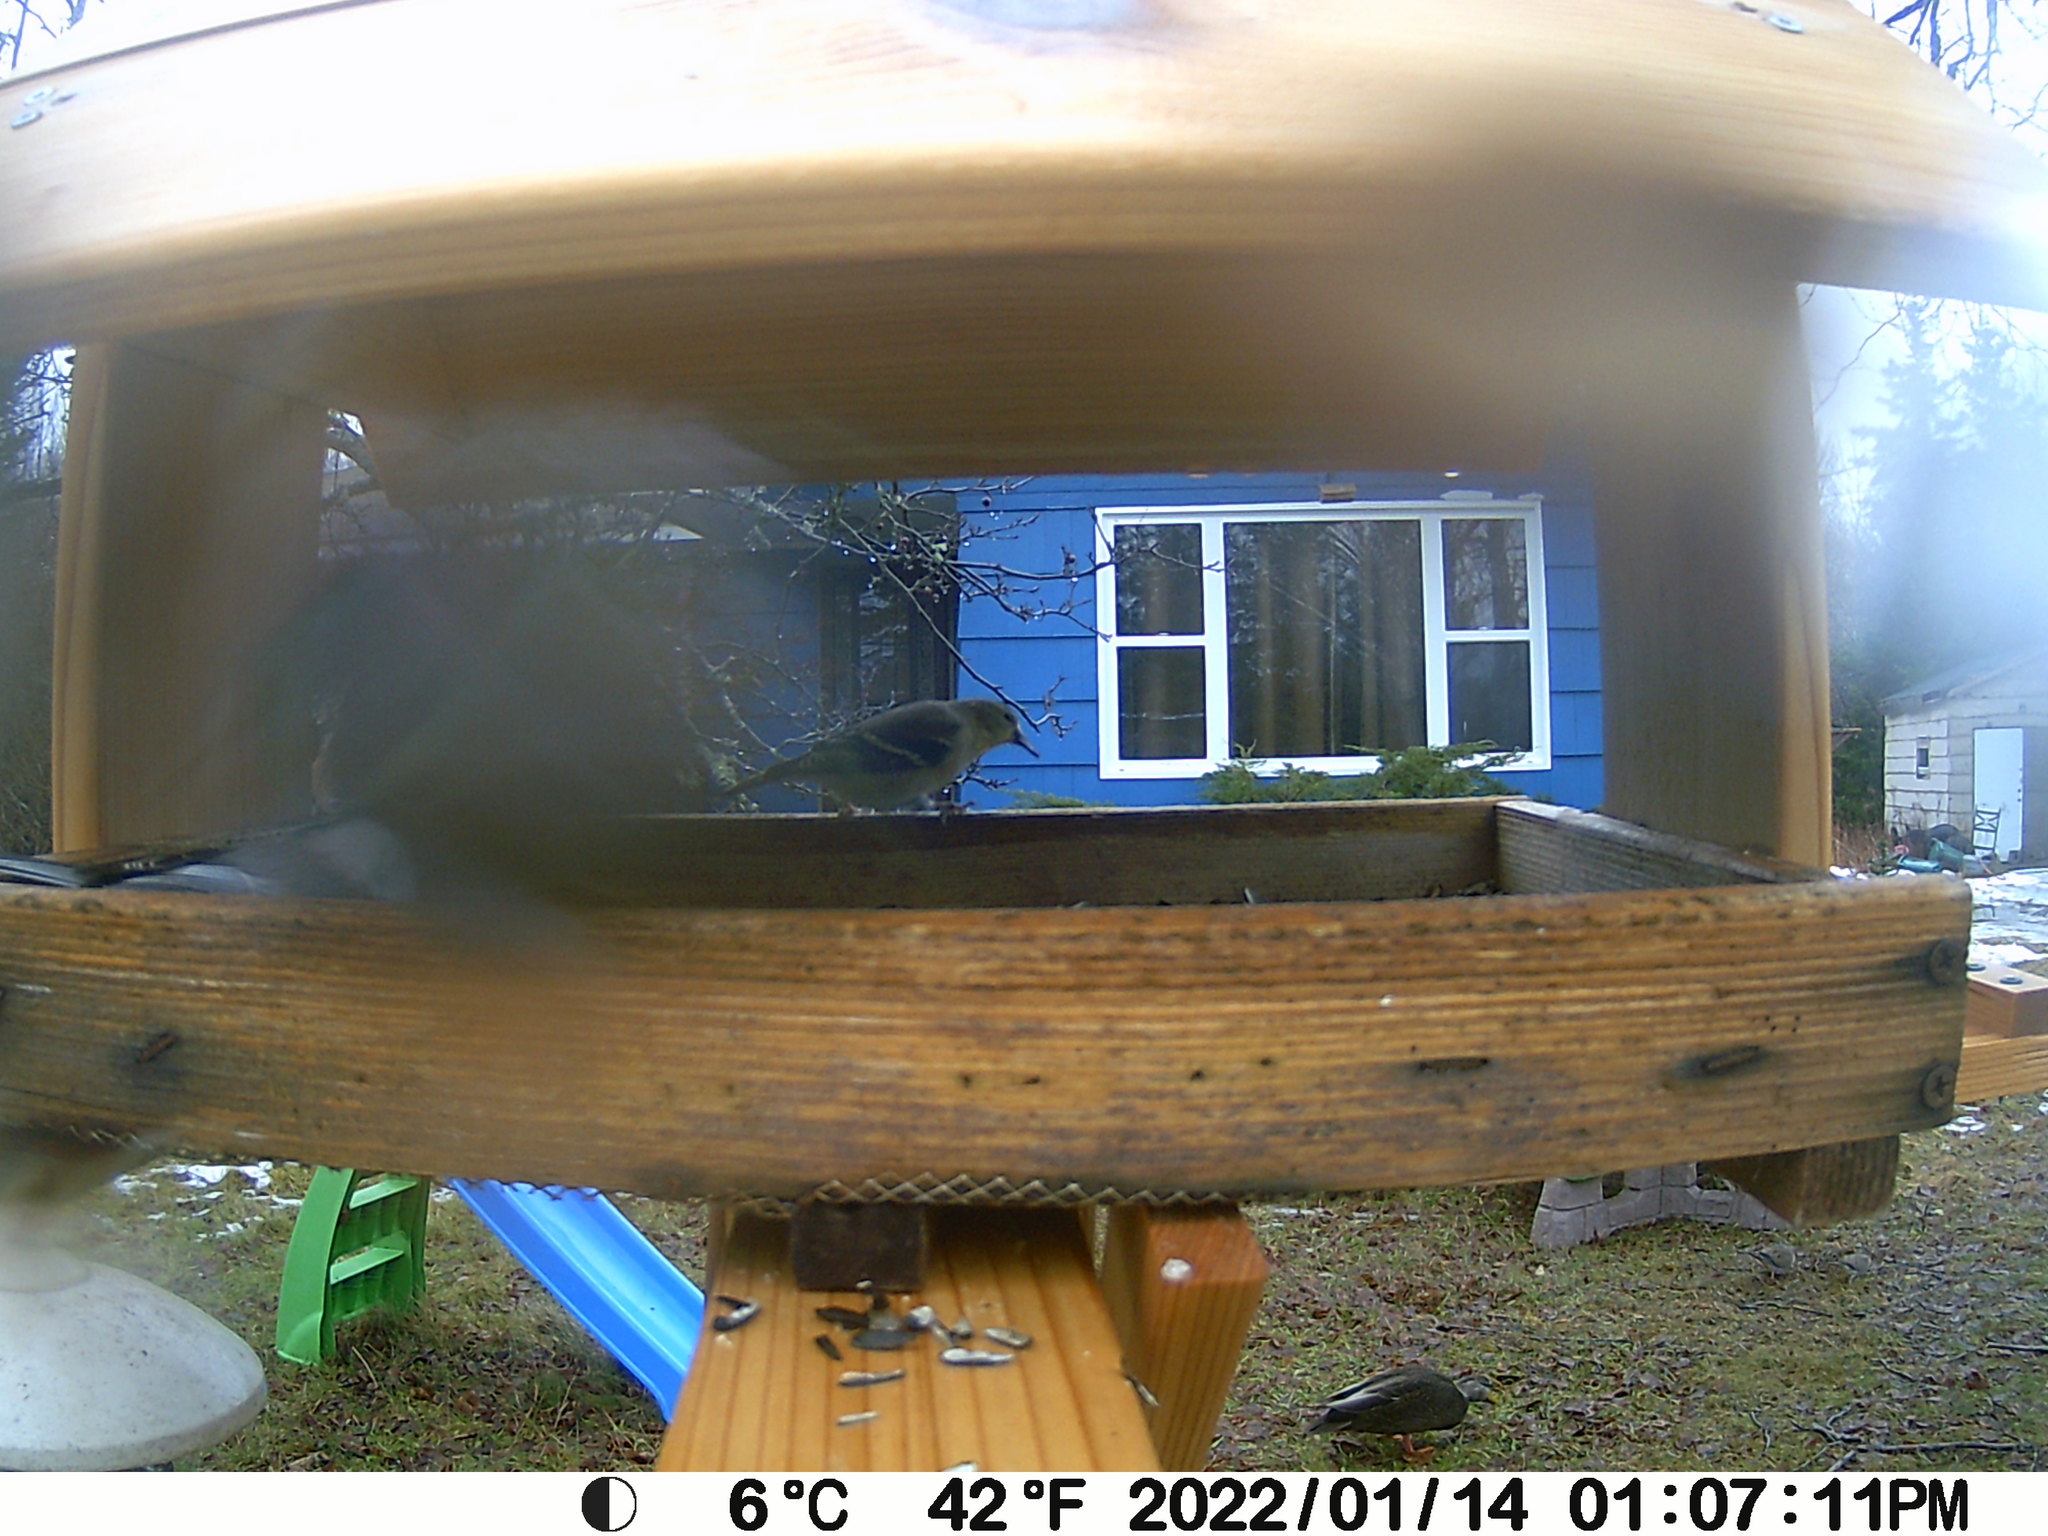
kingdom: Animalia
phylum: Chordata
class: Aves
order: Passeriformes
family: Fringillidae
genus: Spinus
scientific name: Spinus tristis
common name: American goldfinch
